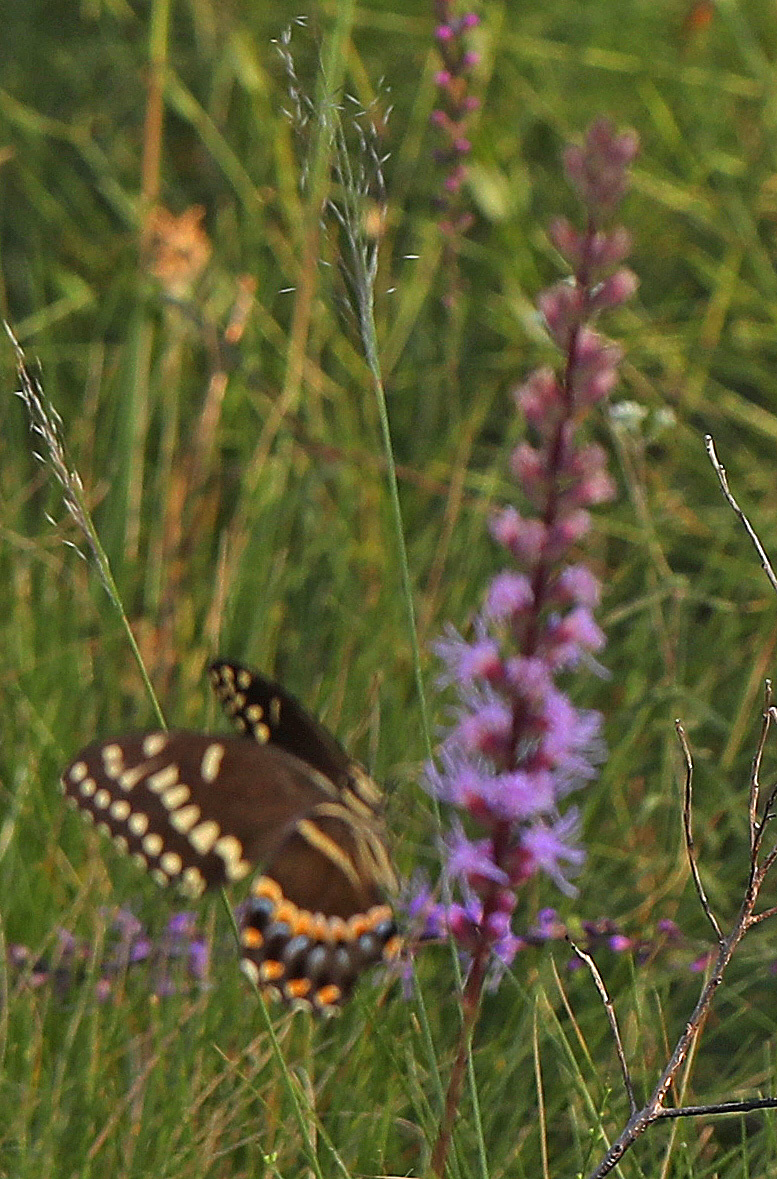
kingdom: Animalia
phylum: Arthropoda
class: Insecta
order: Lepidoptera
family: Papilionidae
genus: Papilio
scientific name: Papilio palamedes
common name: Palamedes swallowtail
